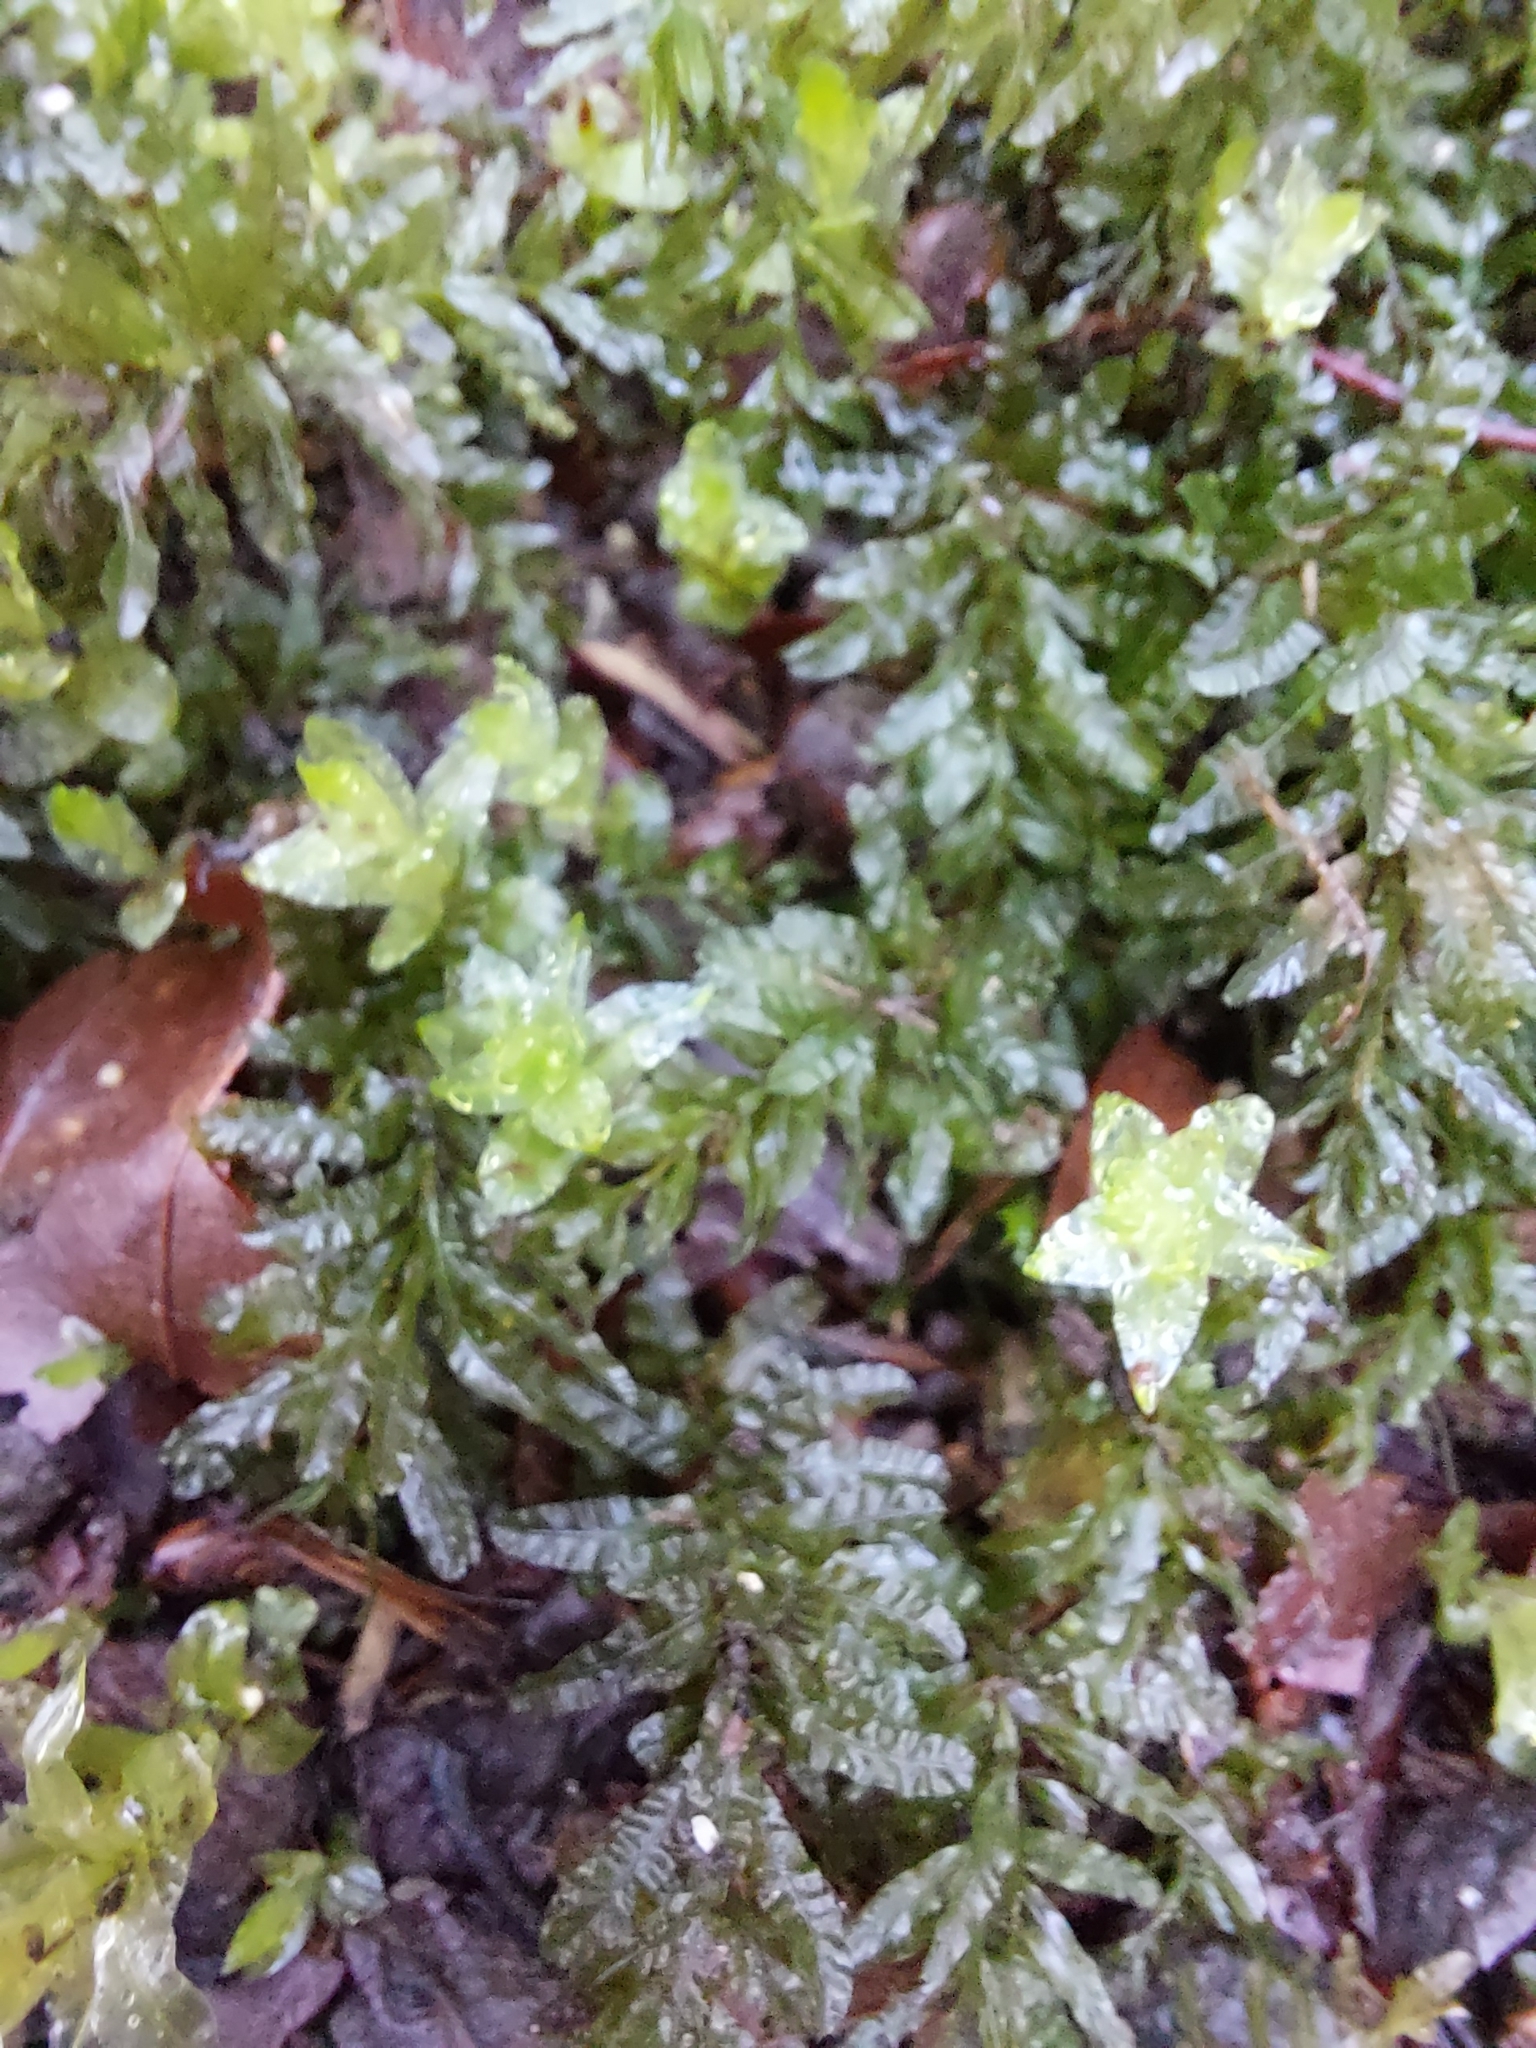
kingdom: Plantae
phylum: Bryophyta
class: Bryopsida
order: Bryales
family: Mniaceae
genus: Plagiomnium
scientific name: Plagiomnium undulatum
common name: Hart's-tongue thyme-moss
